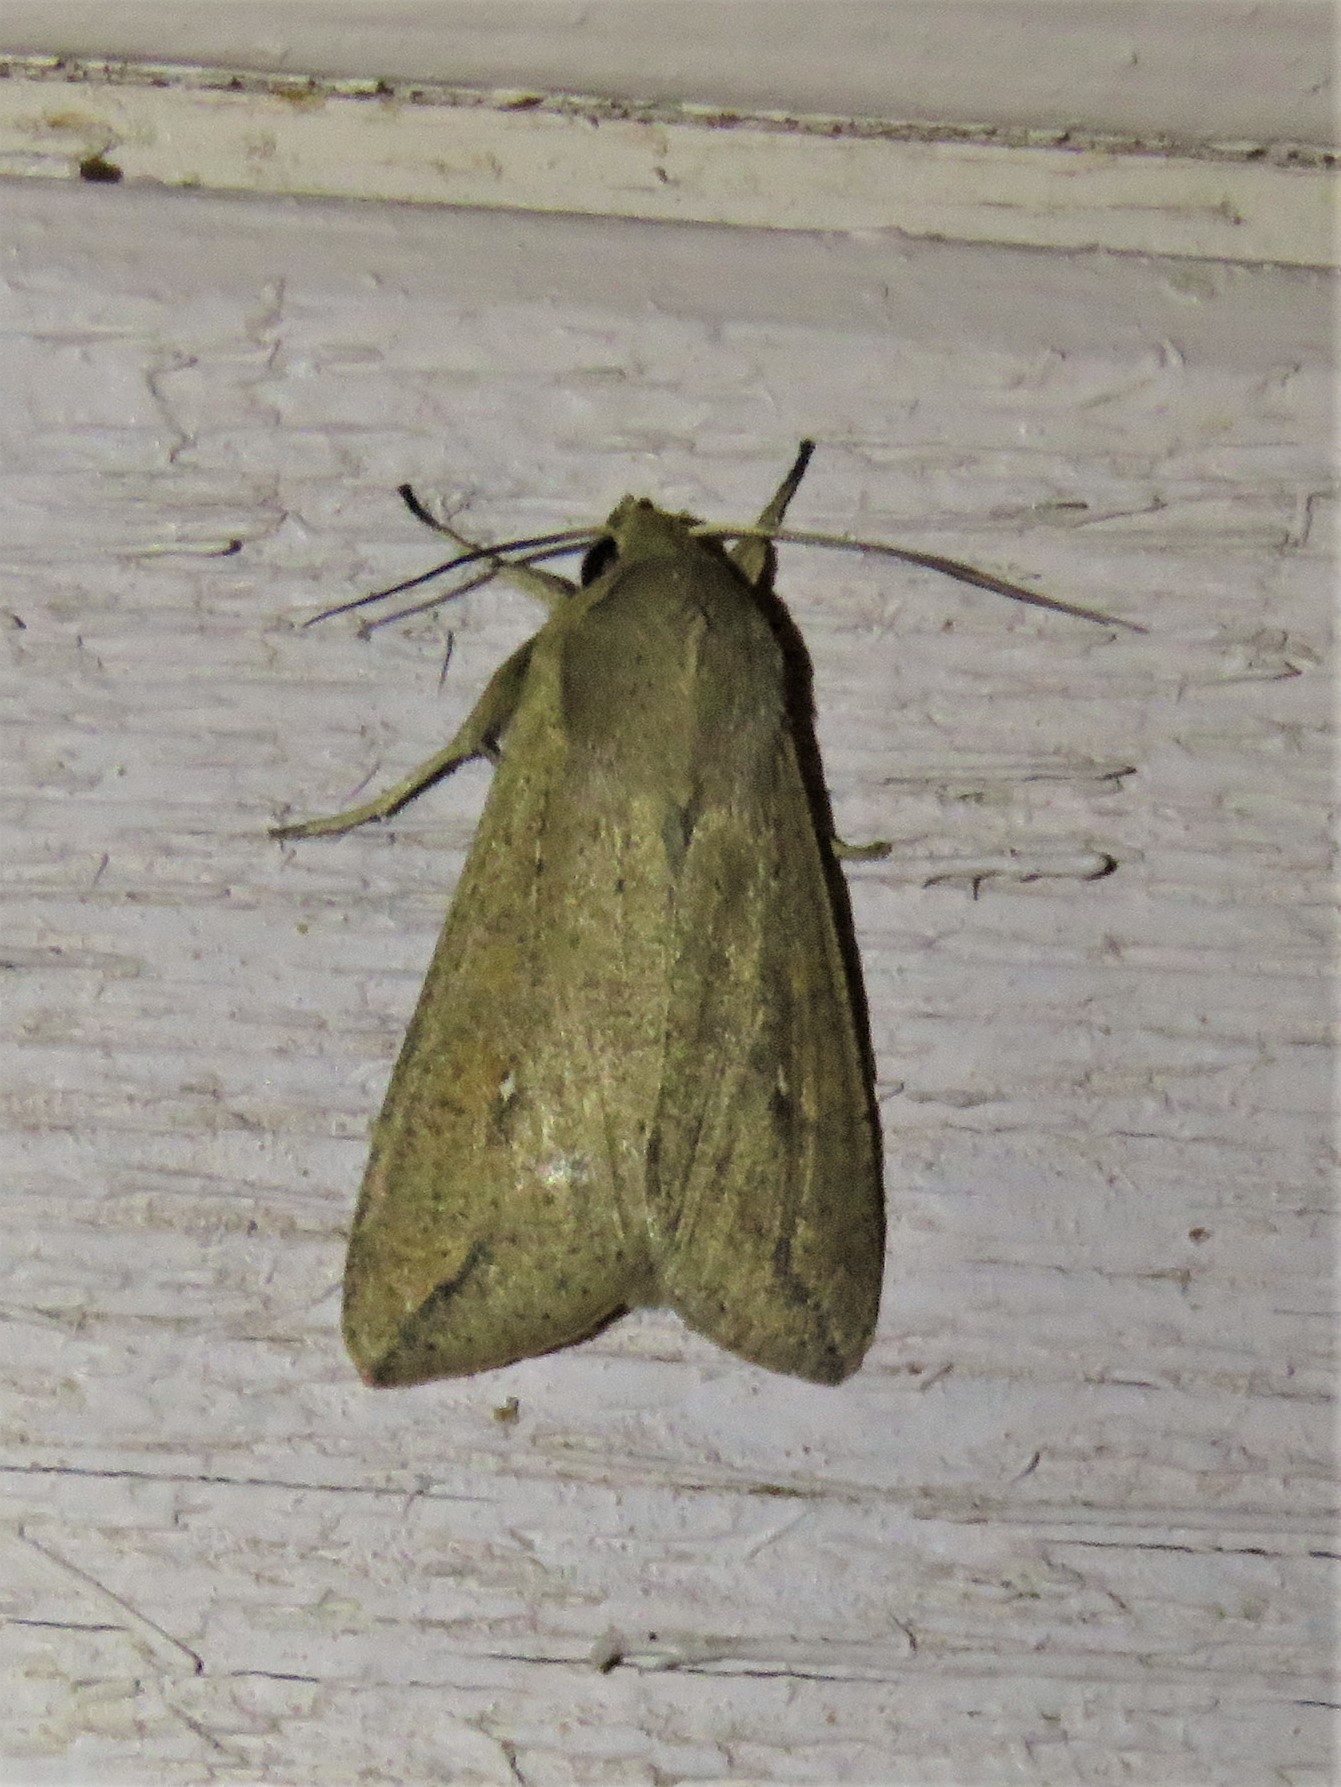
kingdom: Animalia
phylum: Arthropoda
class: Insecta
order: Lepidoptera
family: Noctuidae
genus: Mythimna
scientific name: Mythimna unipuncta
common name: White-speck
